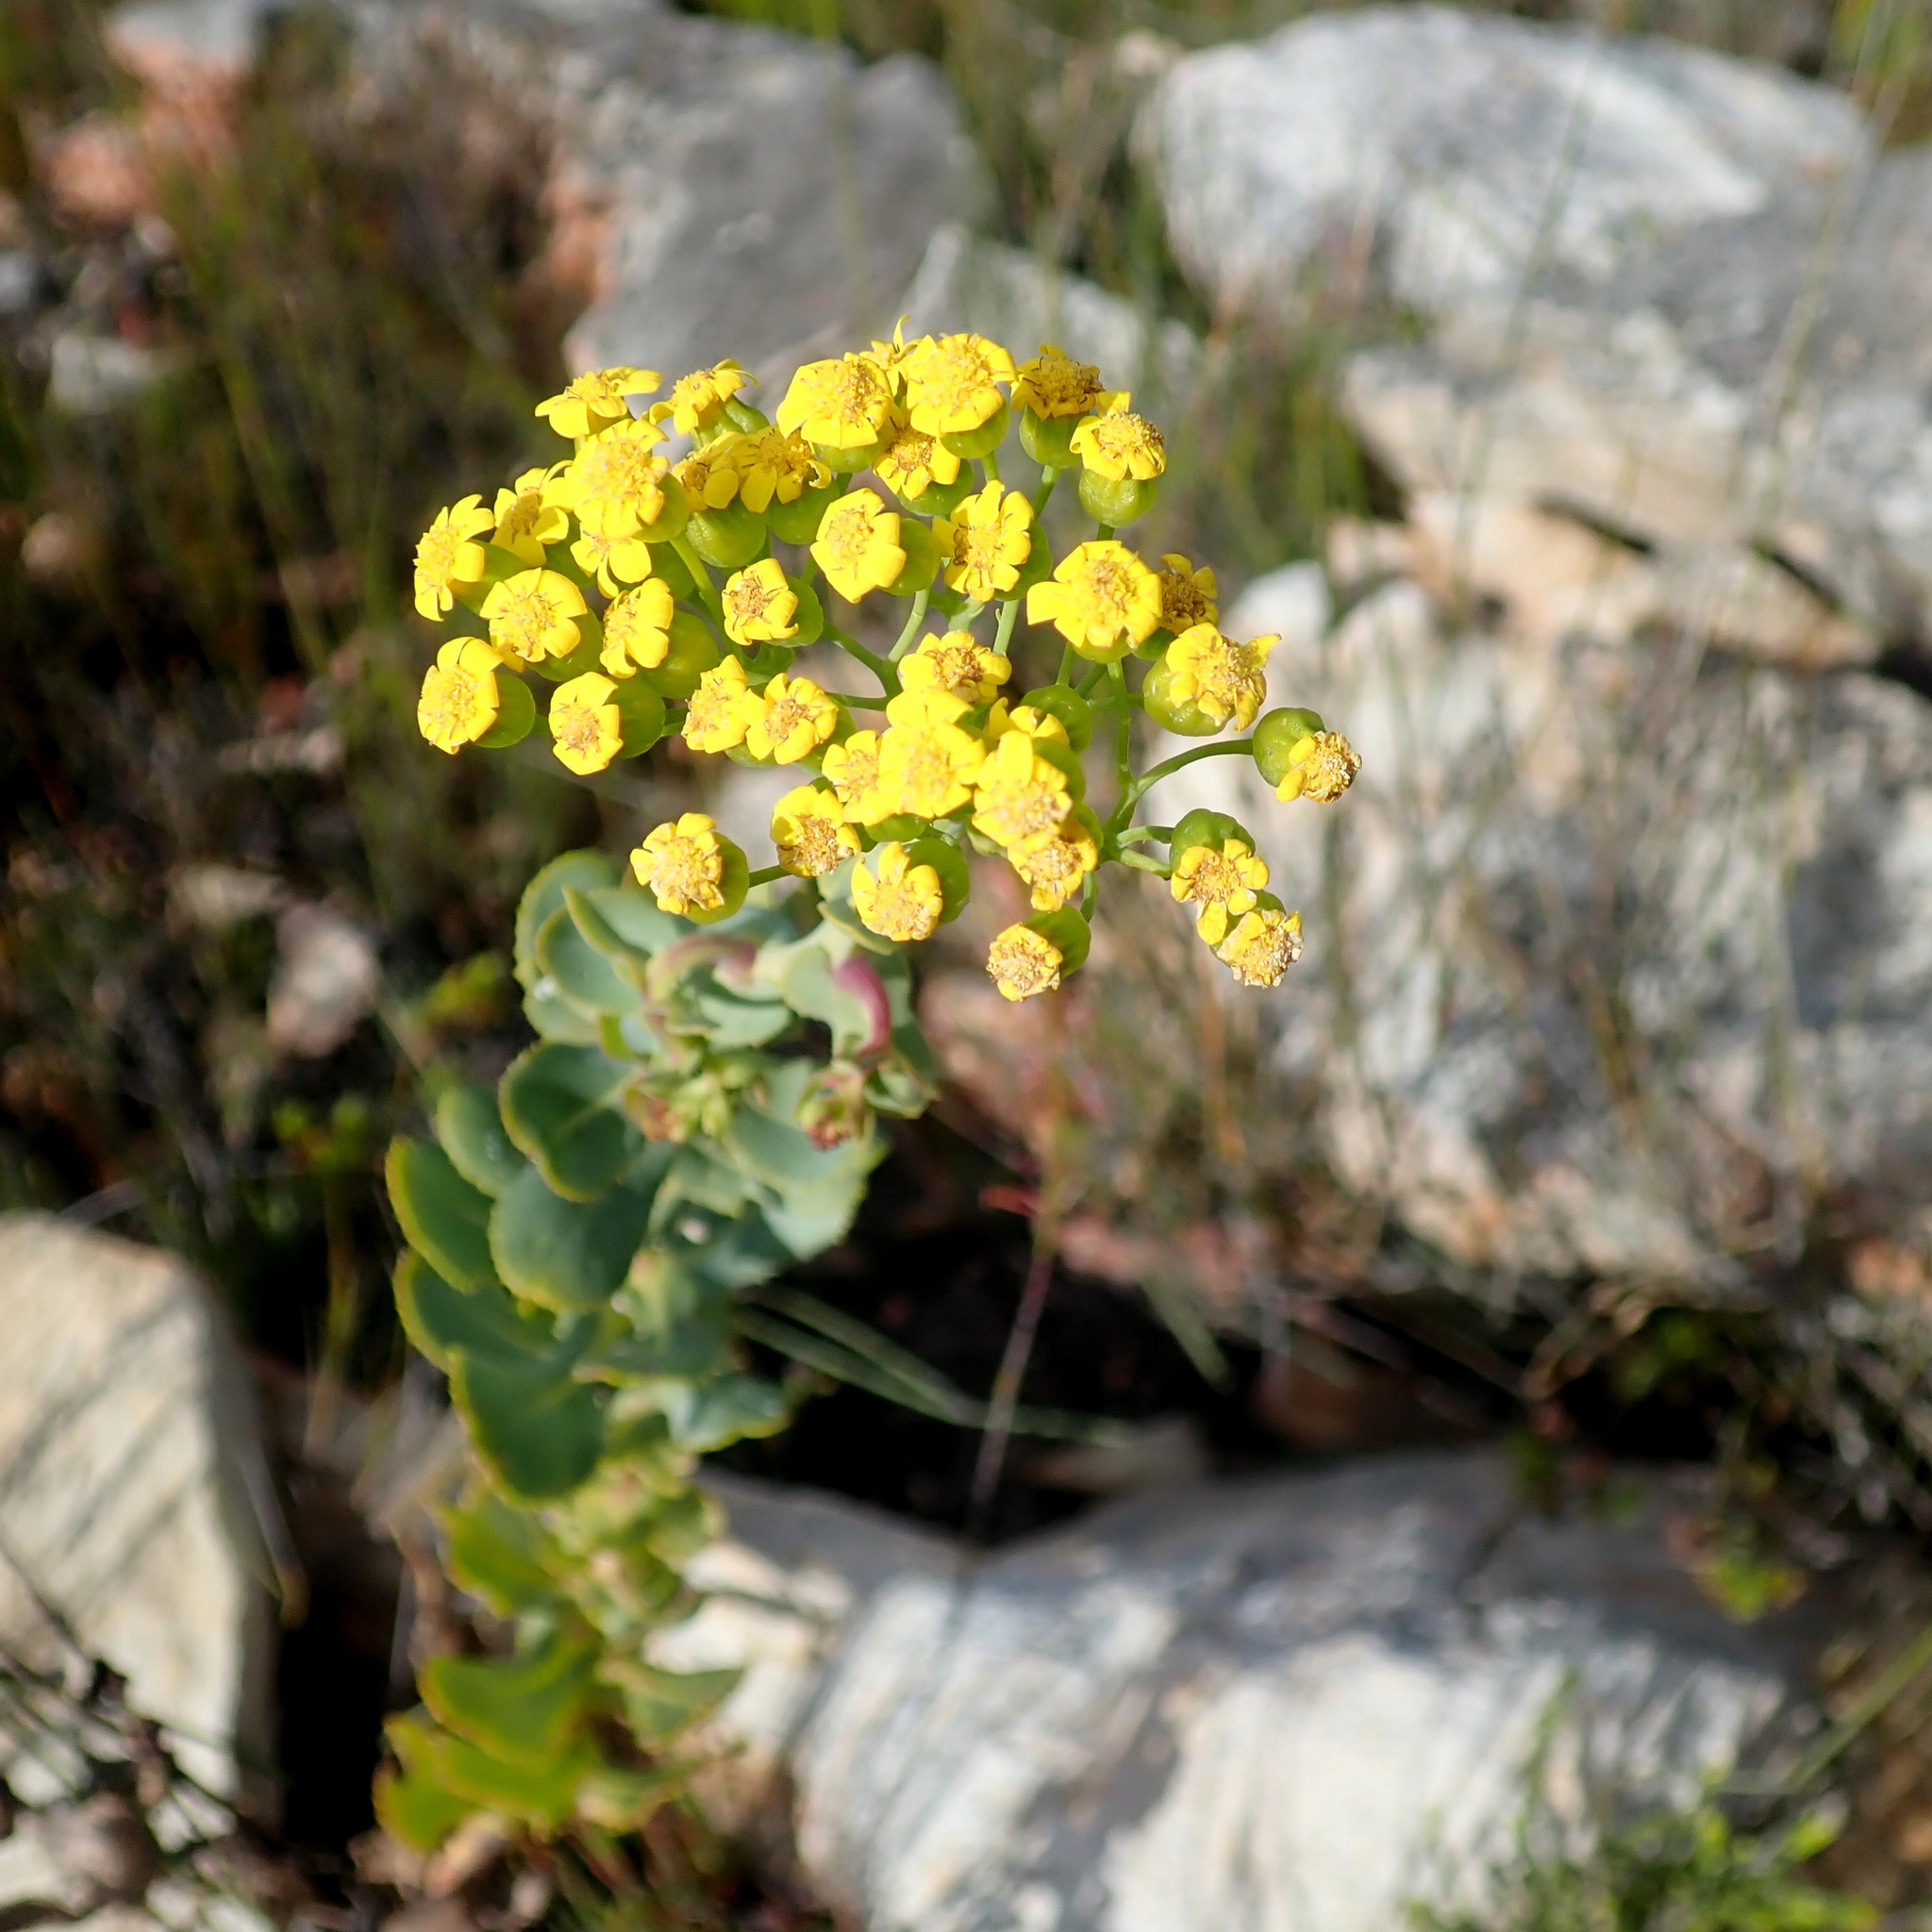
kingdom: Plantae
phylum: Tracheophyta
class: Magnoliopsida
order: Asterales
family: Asteraceae
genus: Othonna
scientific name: Othonna parviflora
